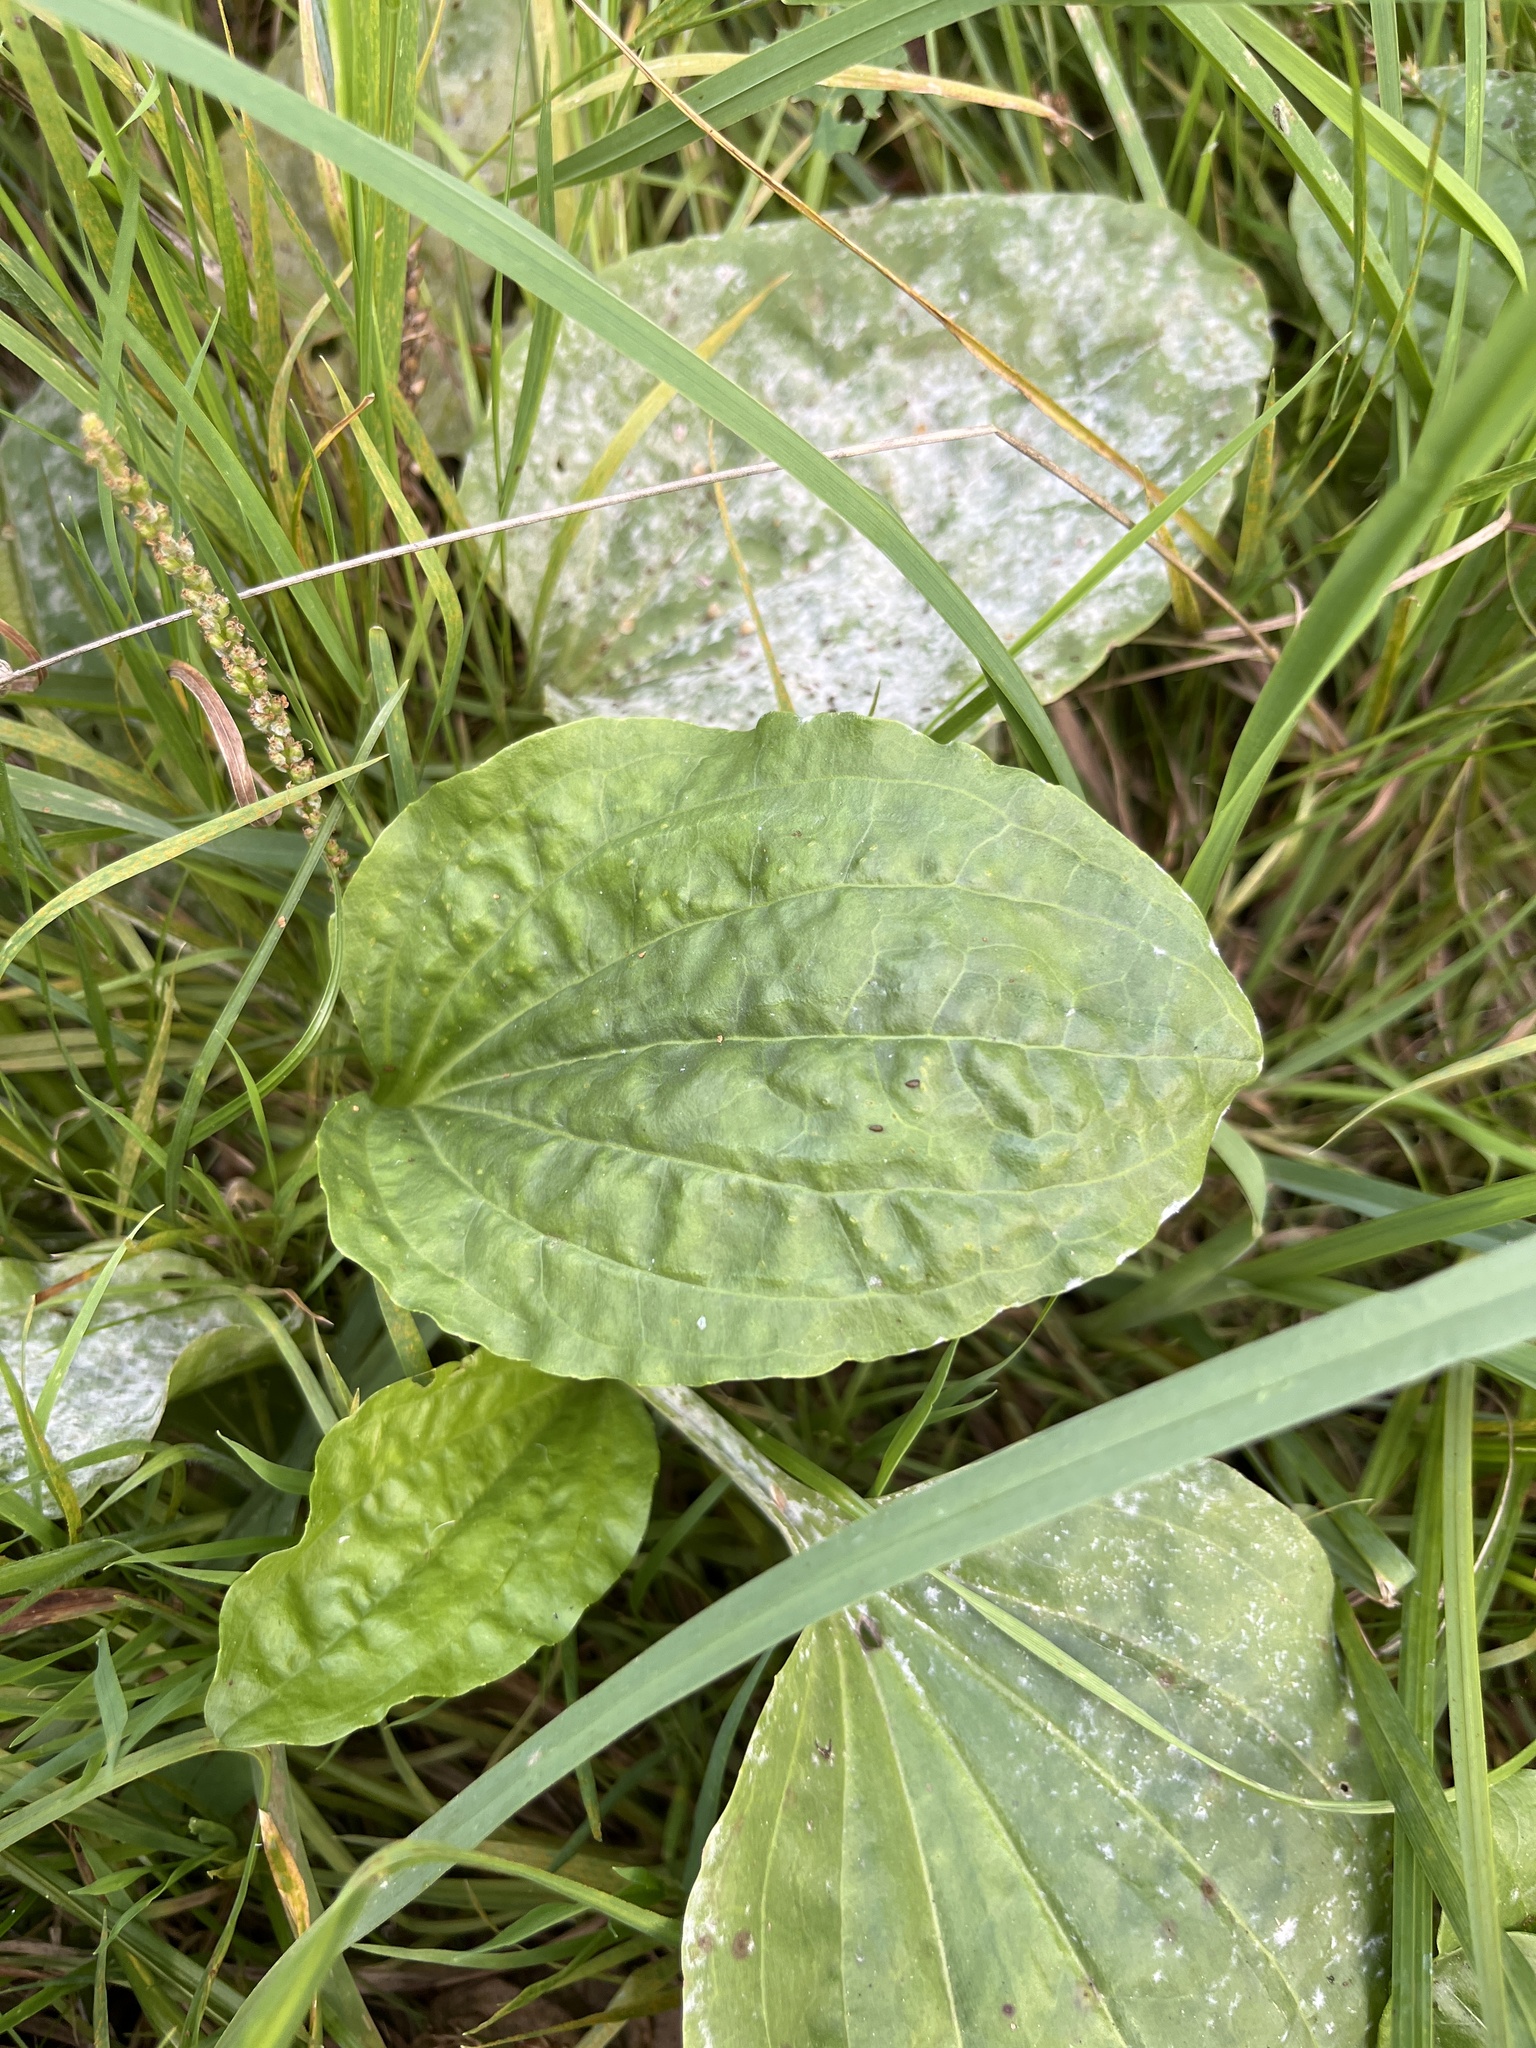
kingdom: Plantae
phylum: Tracheophyta
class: Magnoliopsida
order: Lamiales
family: Plantaginaceae
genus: Plantago
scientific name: Plantago major
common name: Common plantain
